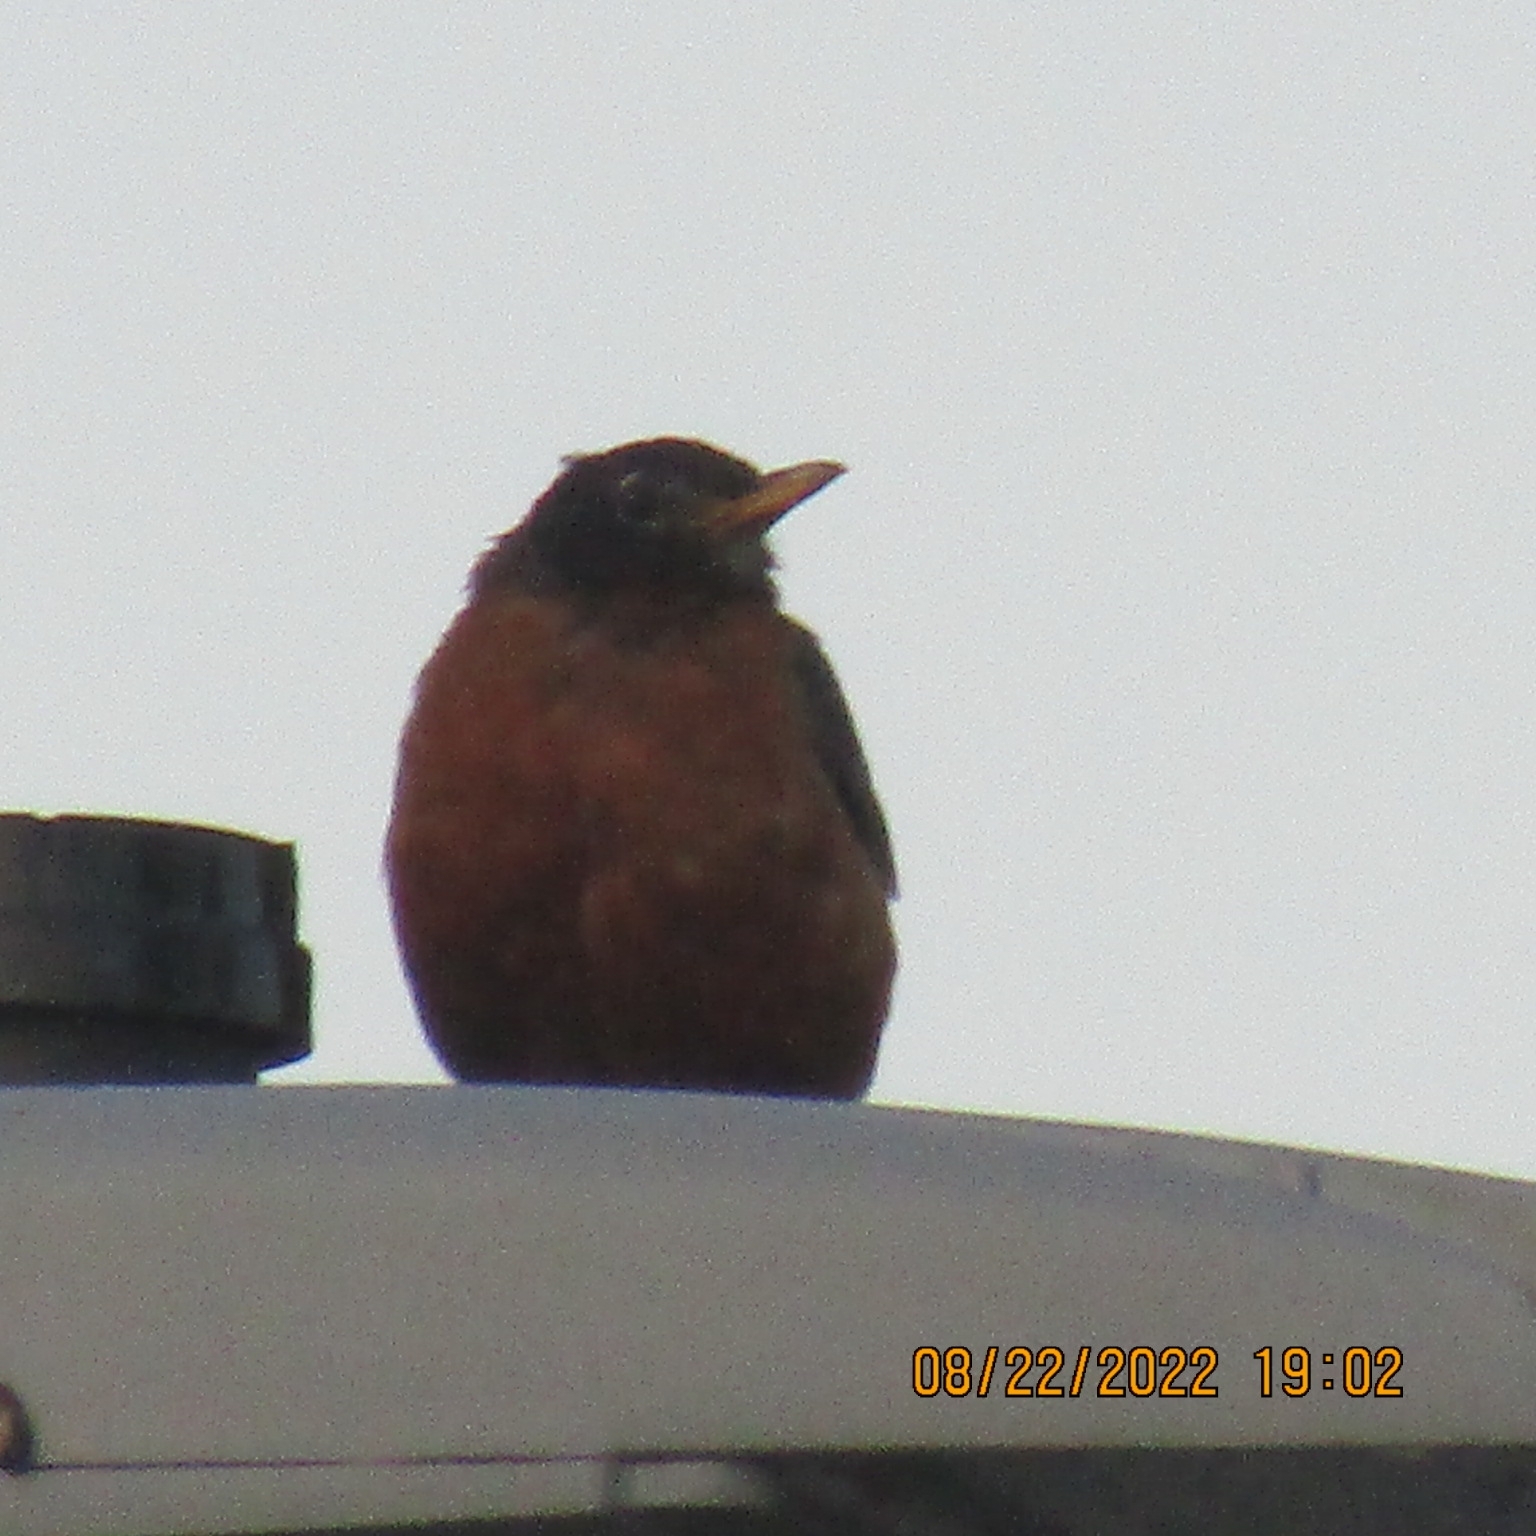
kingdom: Animalia
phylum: Chordata
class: Aves
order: Passeriformes
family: Turdidae
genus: Turdus
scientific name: Turdus migratorius
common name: American robin
